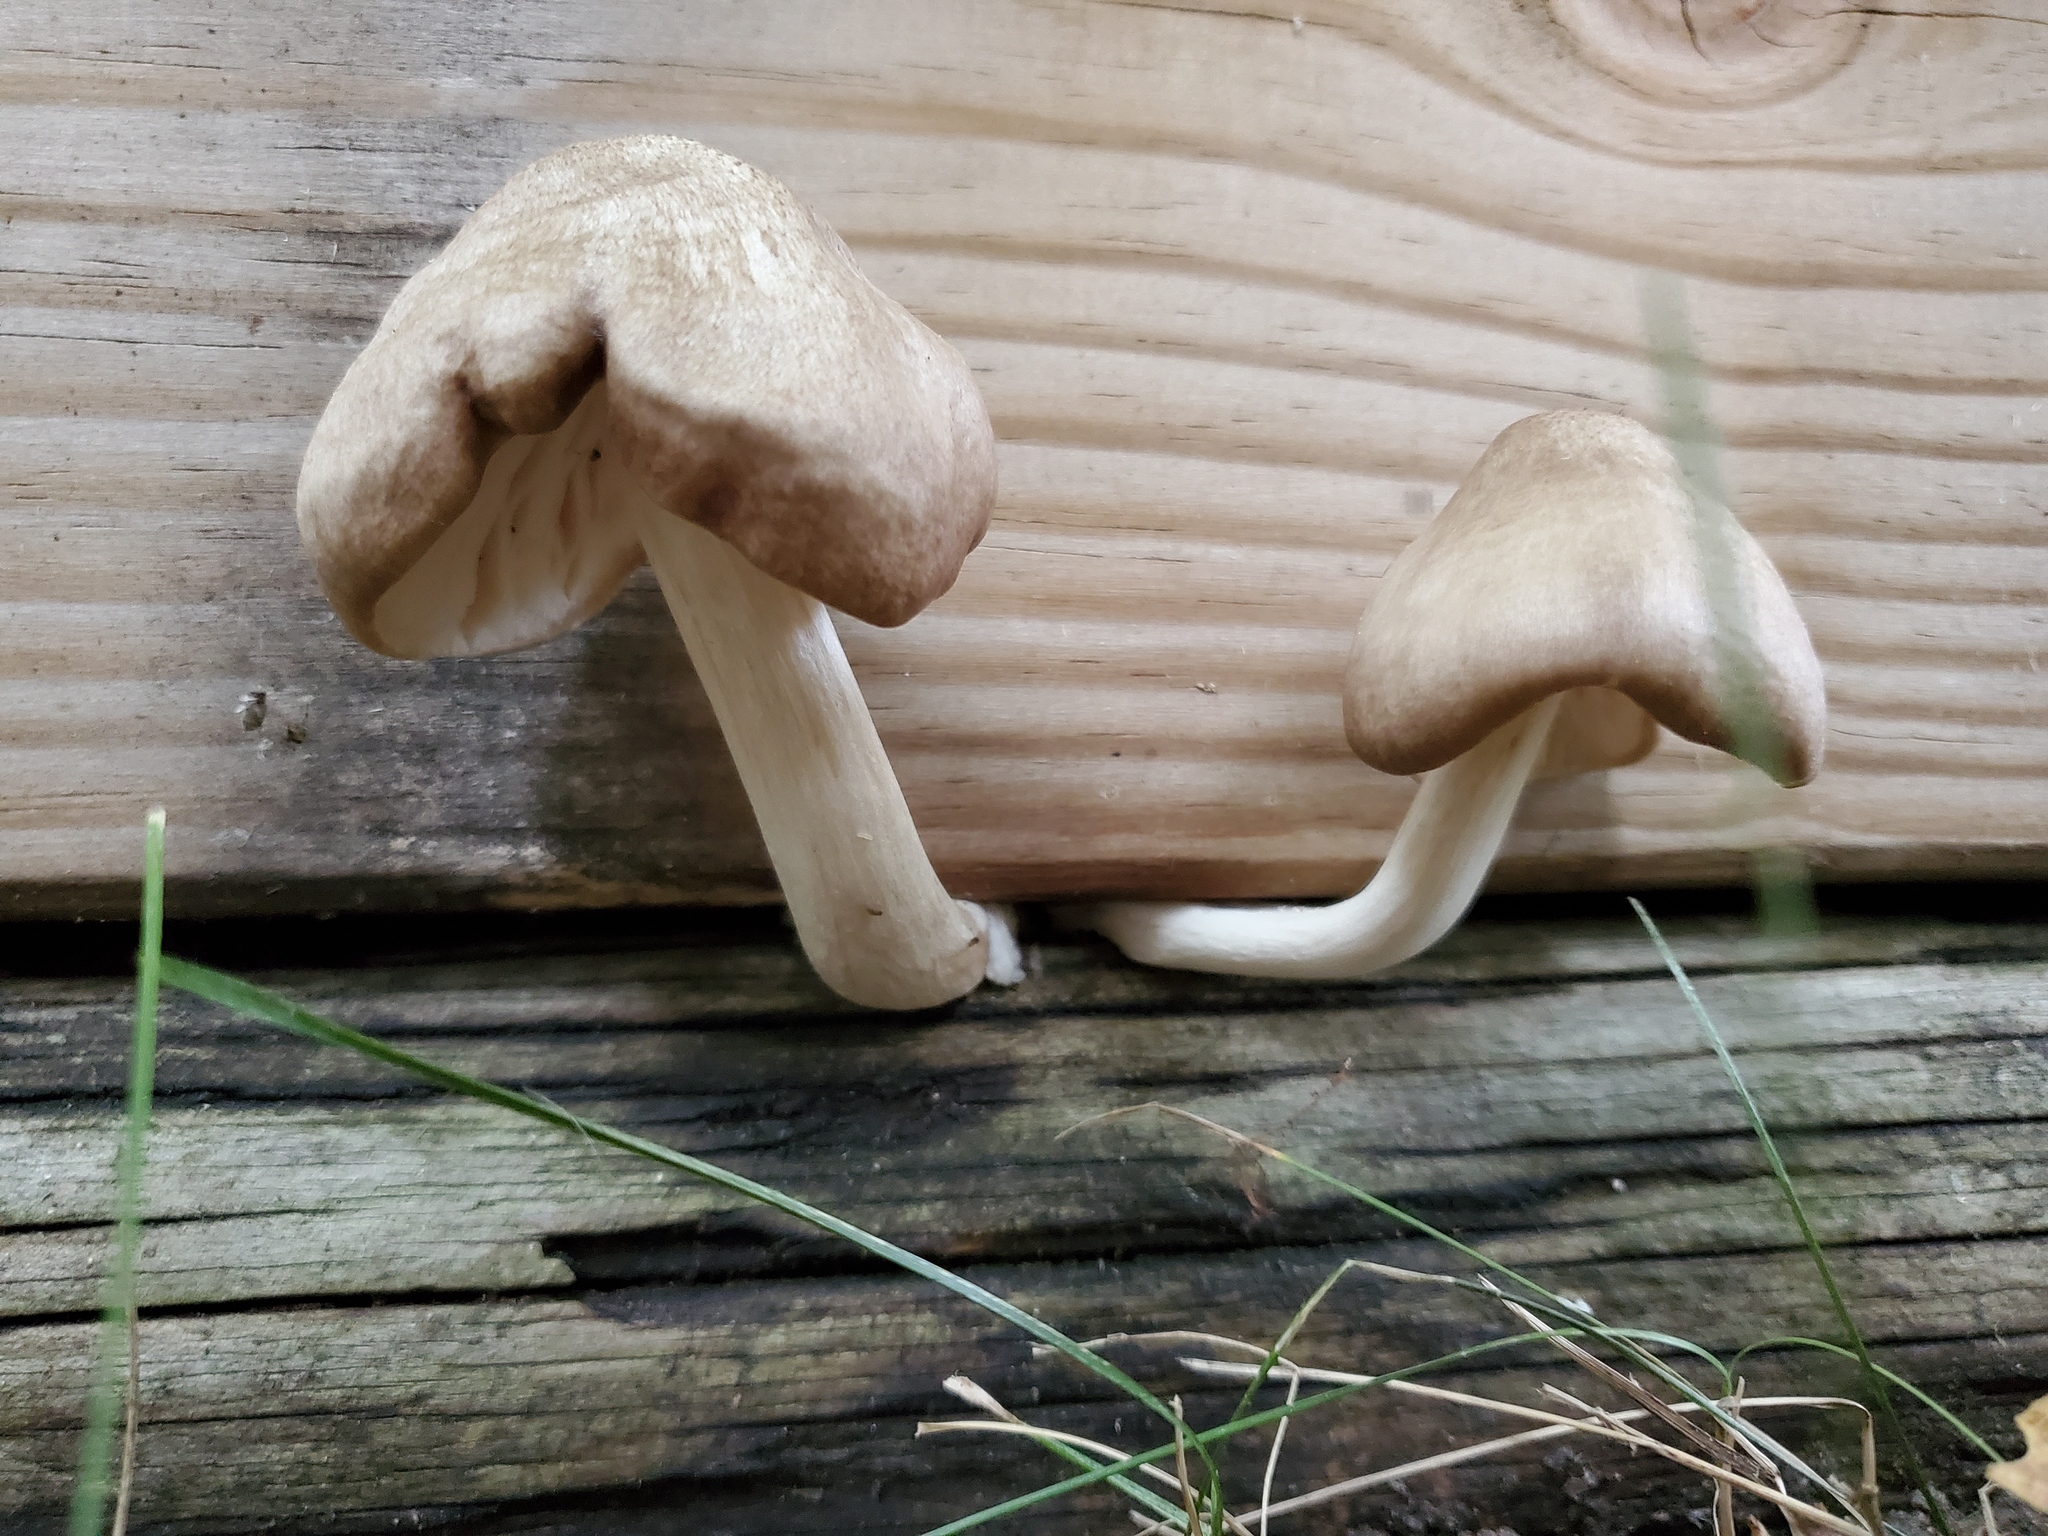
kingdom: Fungi
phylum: Basidiomycota
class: Agaricomycetes
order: Agaricales
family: Pluteaceae
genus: Pluteus
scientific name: Pluteus petasatus
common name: Scaly shield
